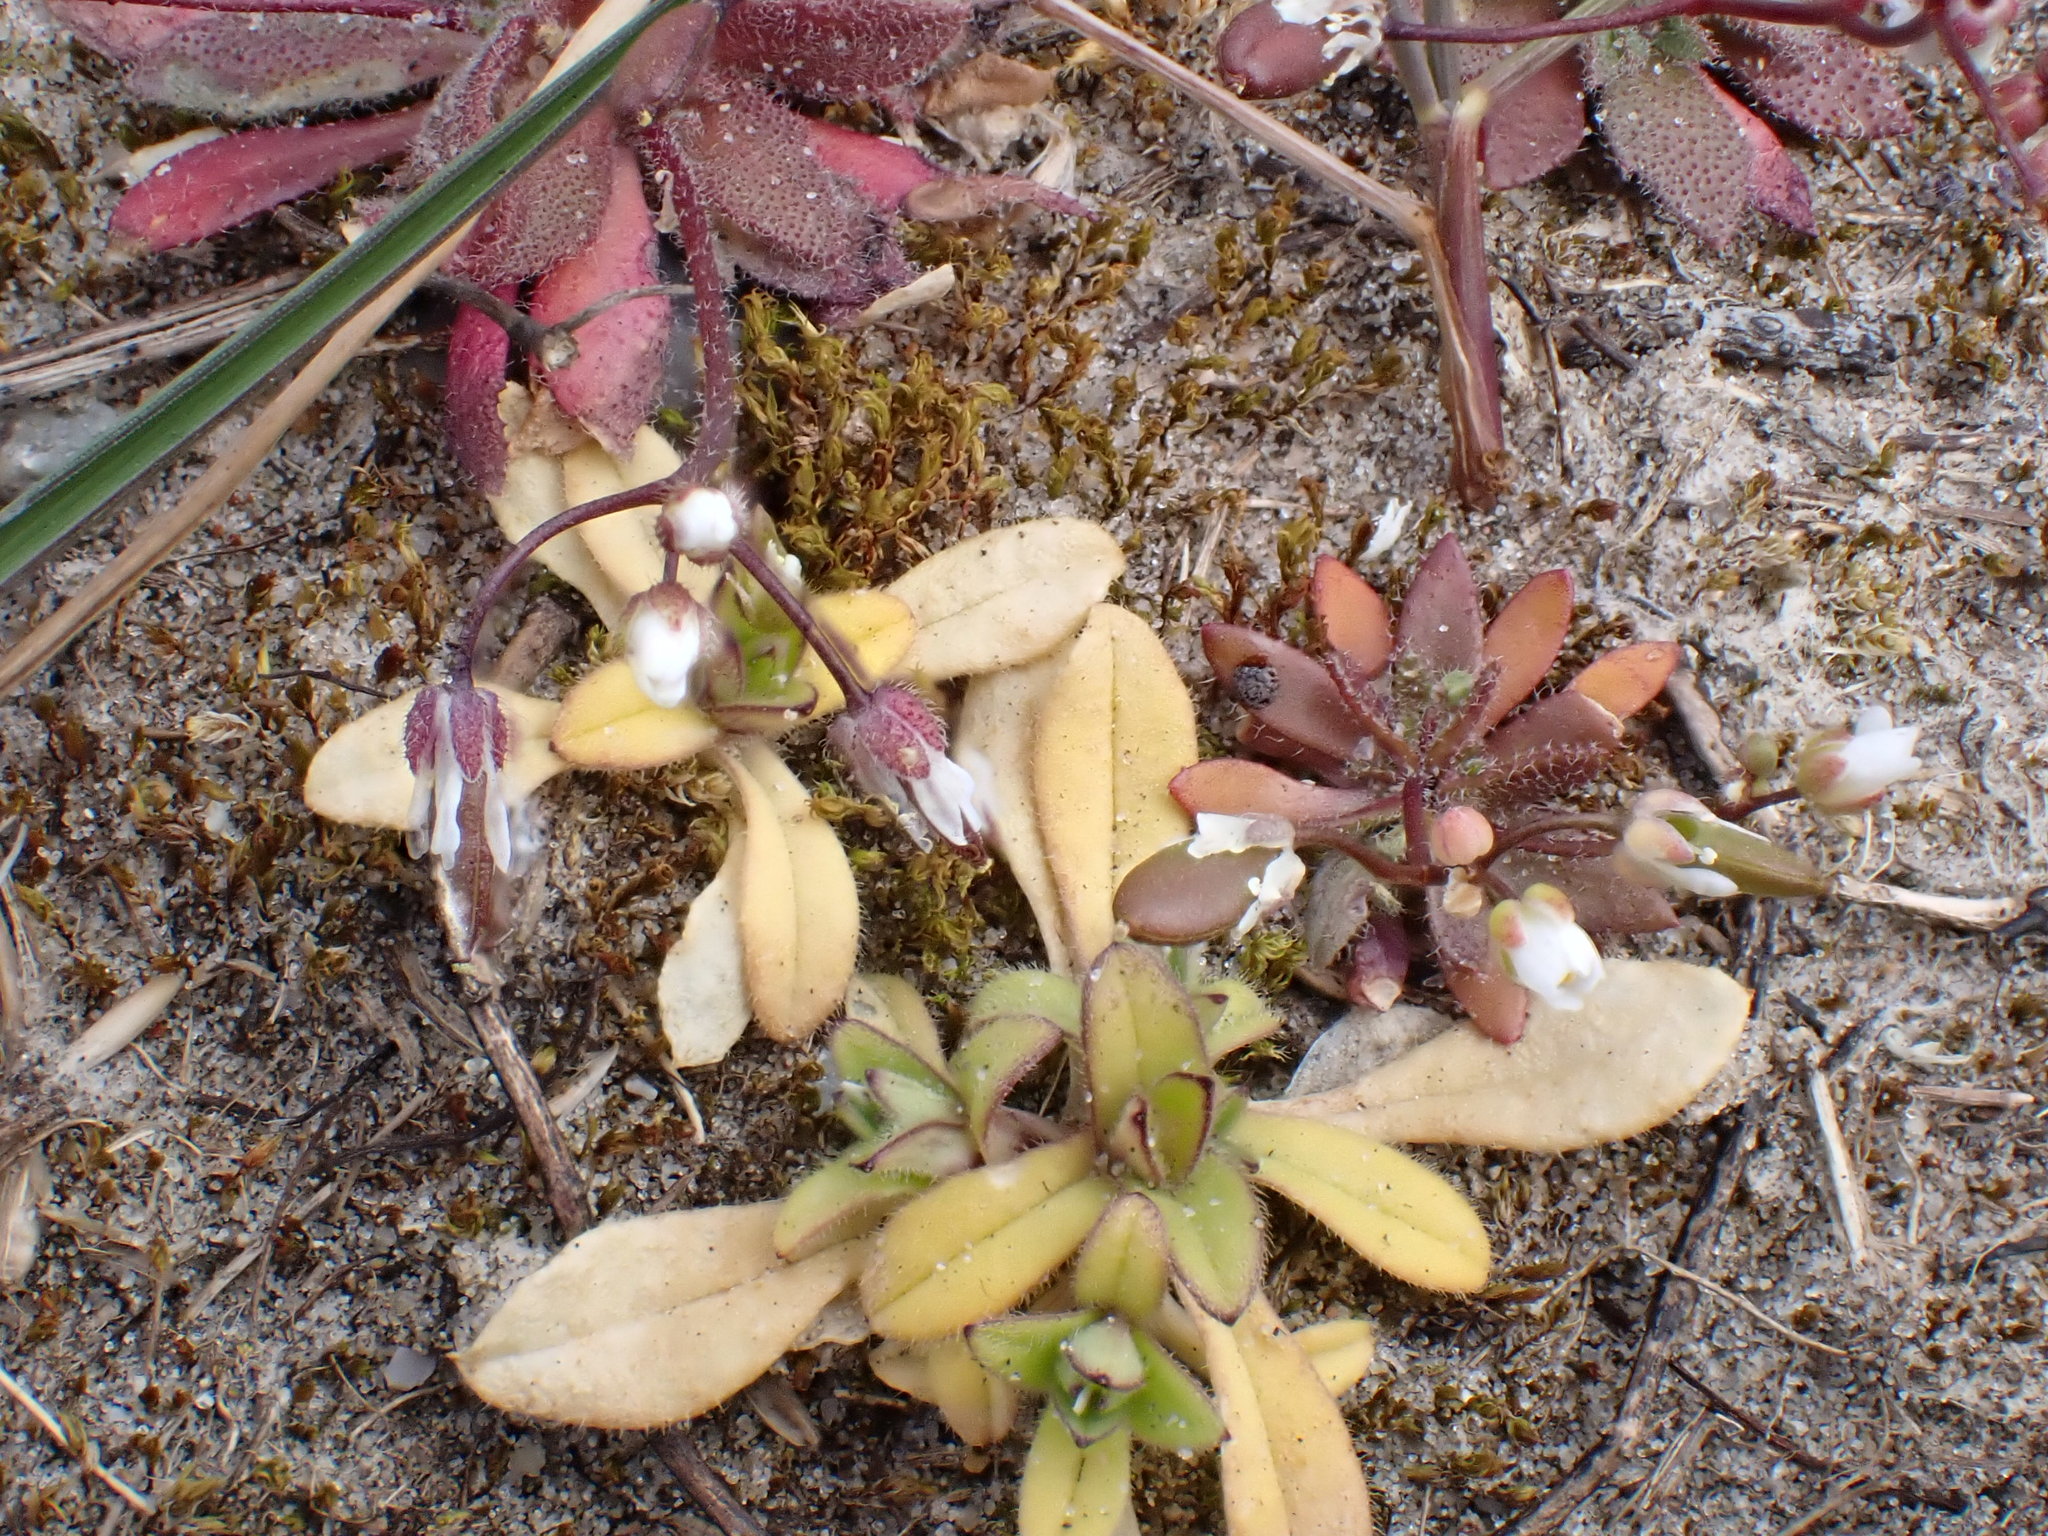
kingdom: Plantae
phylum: Tracheophyta
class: Magnoliopsida
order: Brassicales
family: Brassicaceae
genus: Draba
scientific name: Draba verna
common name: Spring draba
